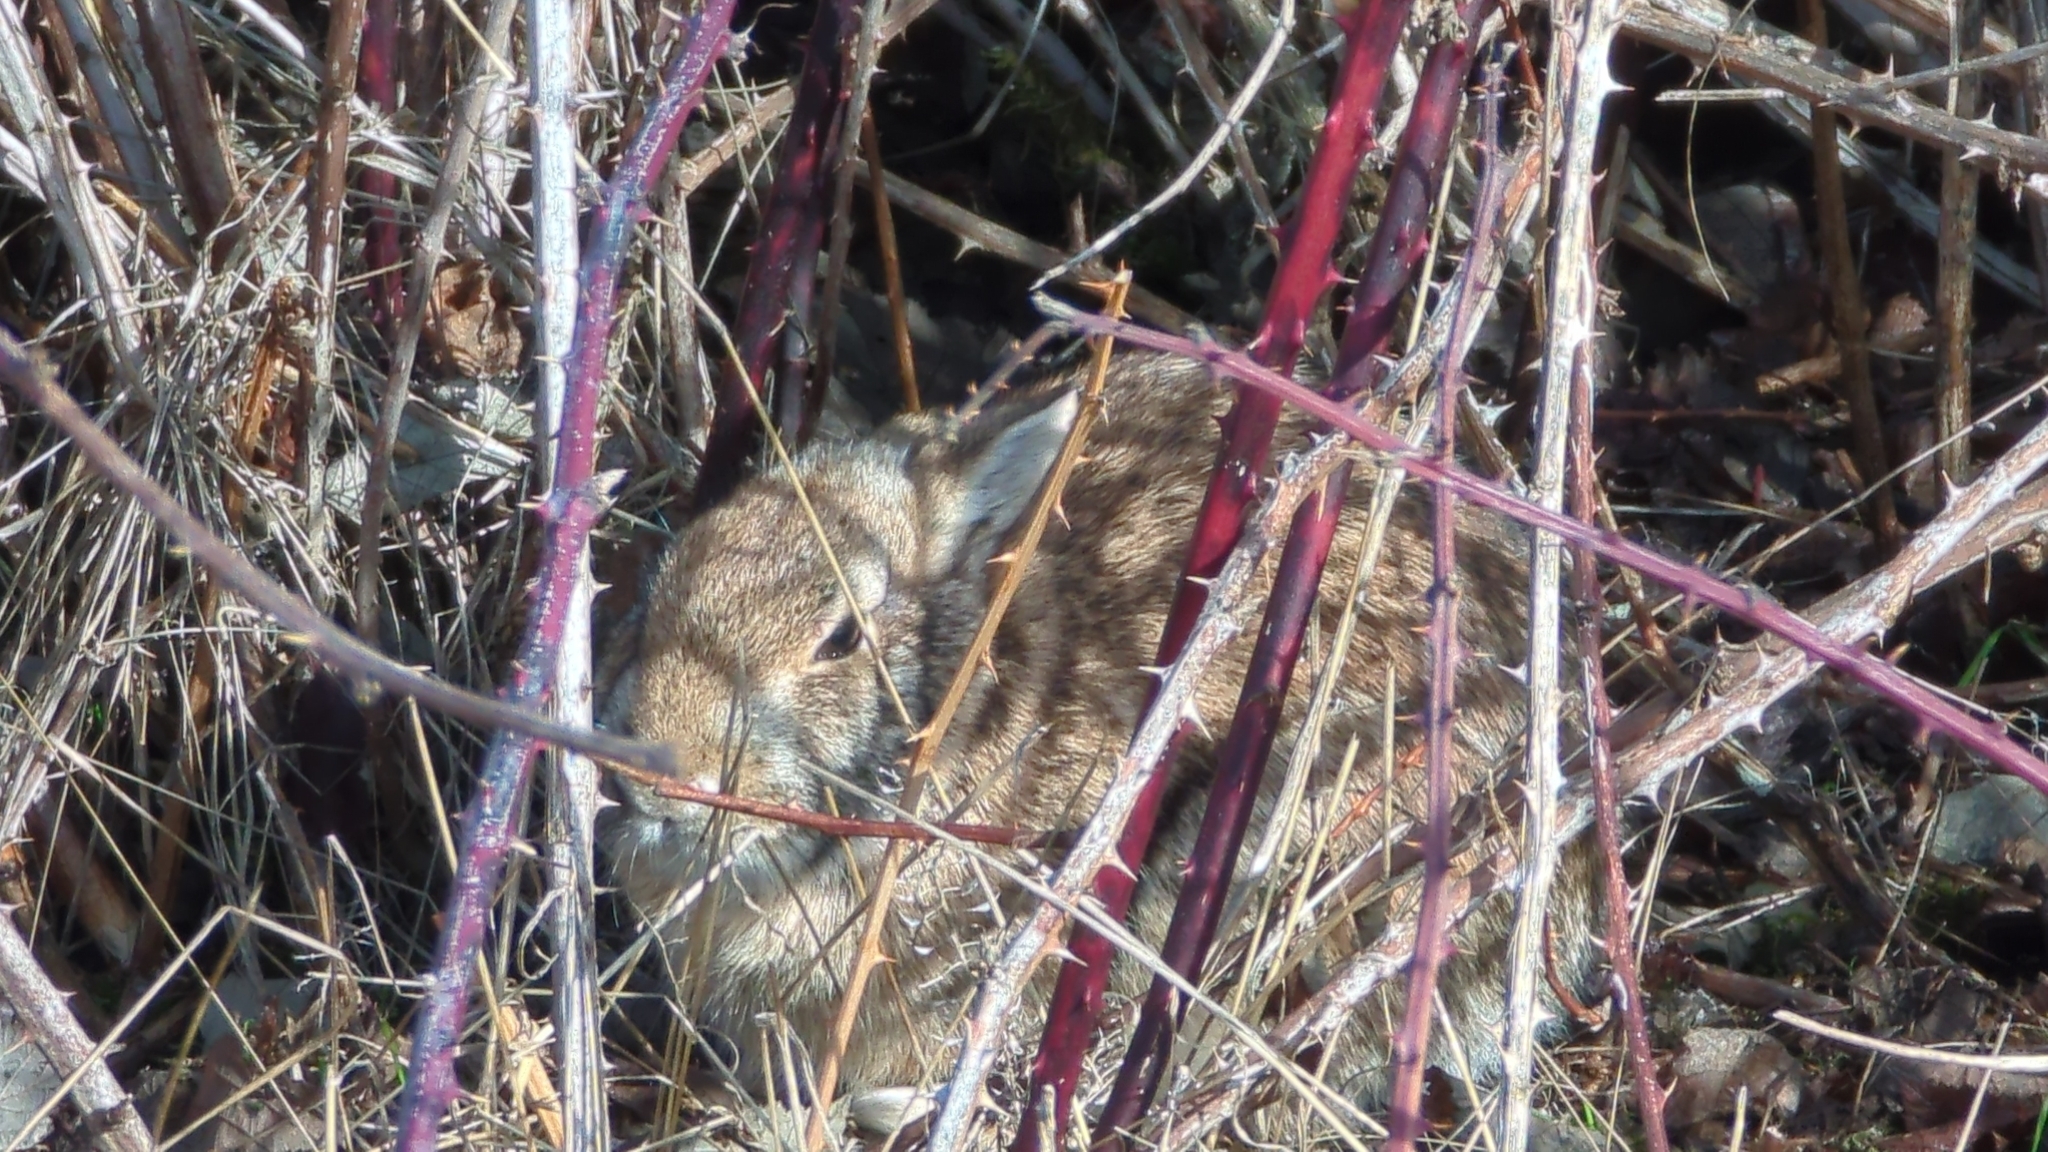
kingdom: Animalia
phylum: Chordata
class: Mammalia
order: Lagomorpha
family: Leporidae
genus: Sylvilagus
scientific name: Sylvilagus floridanus
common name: Eastern cottontail
